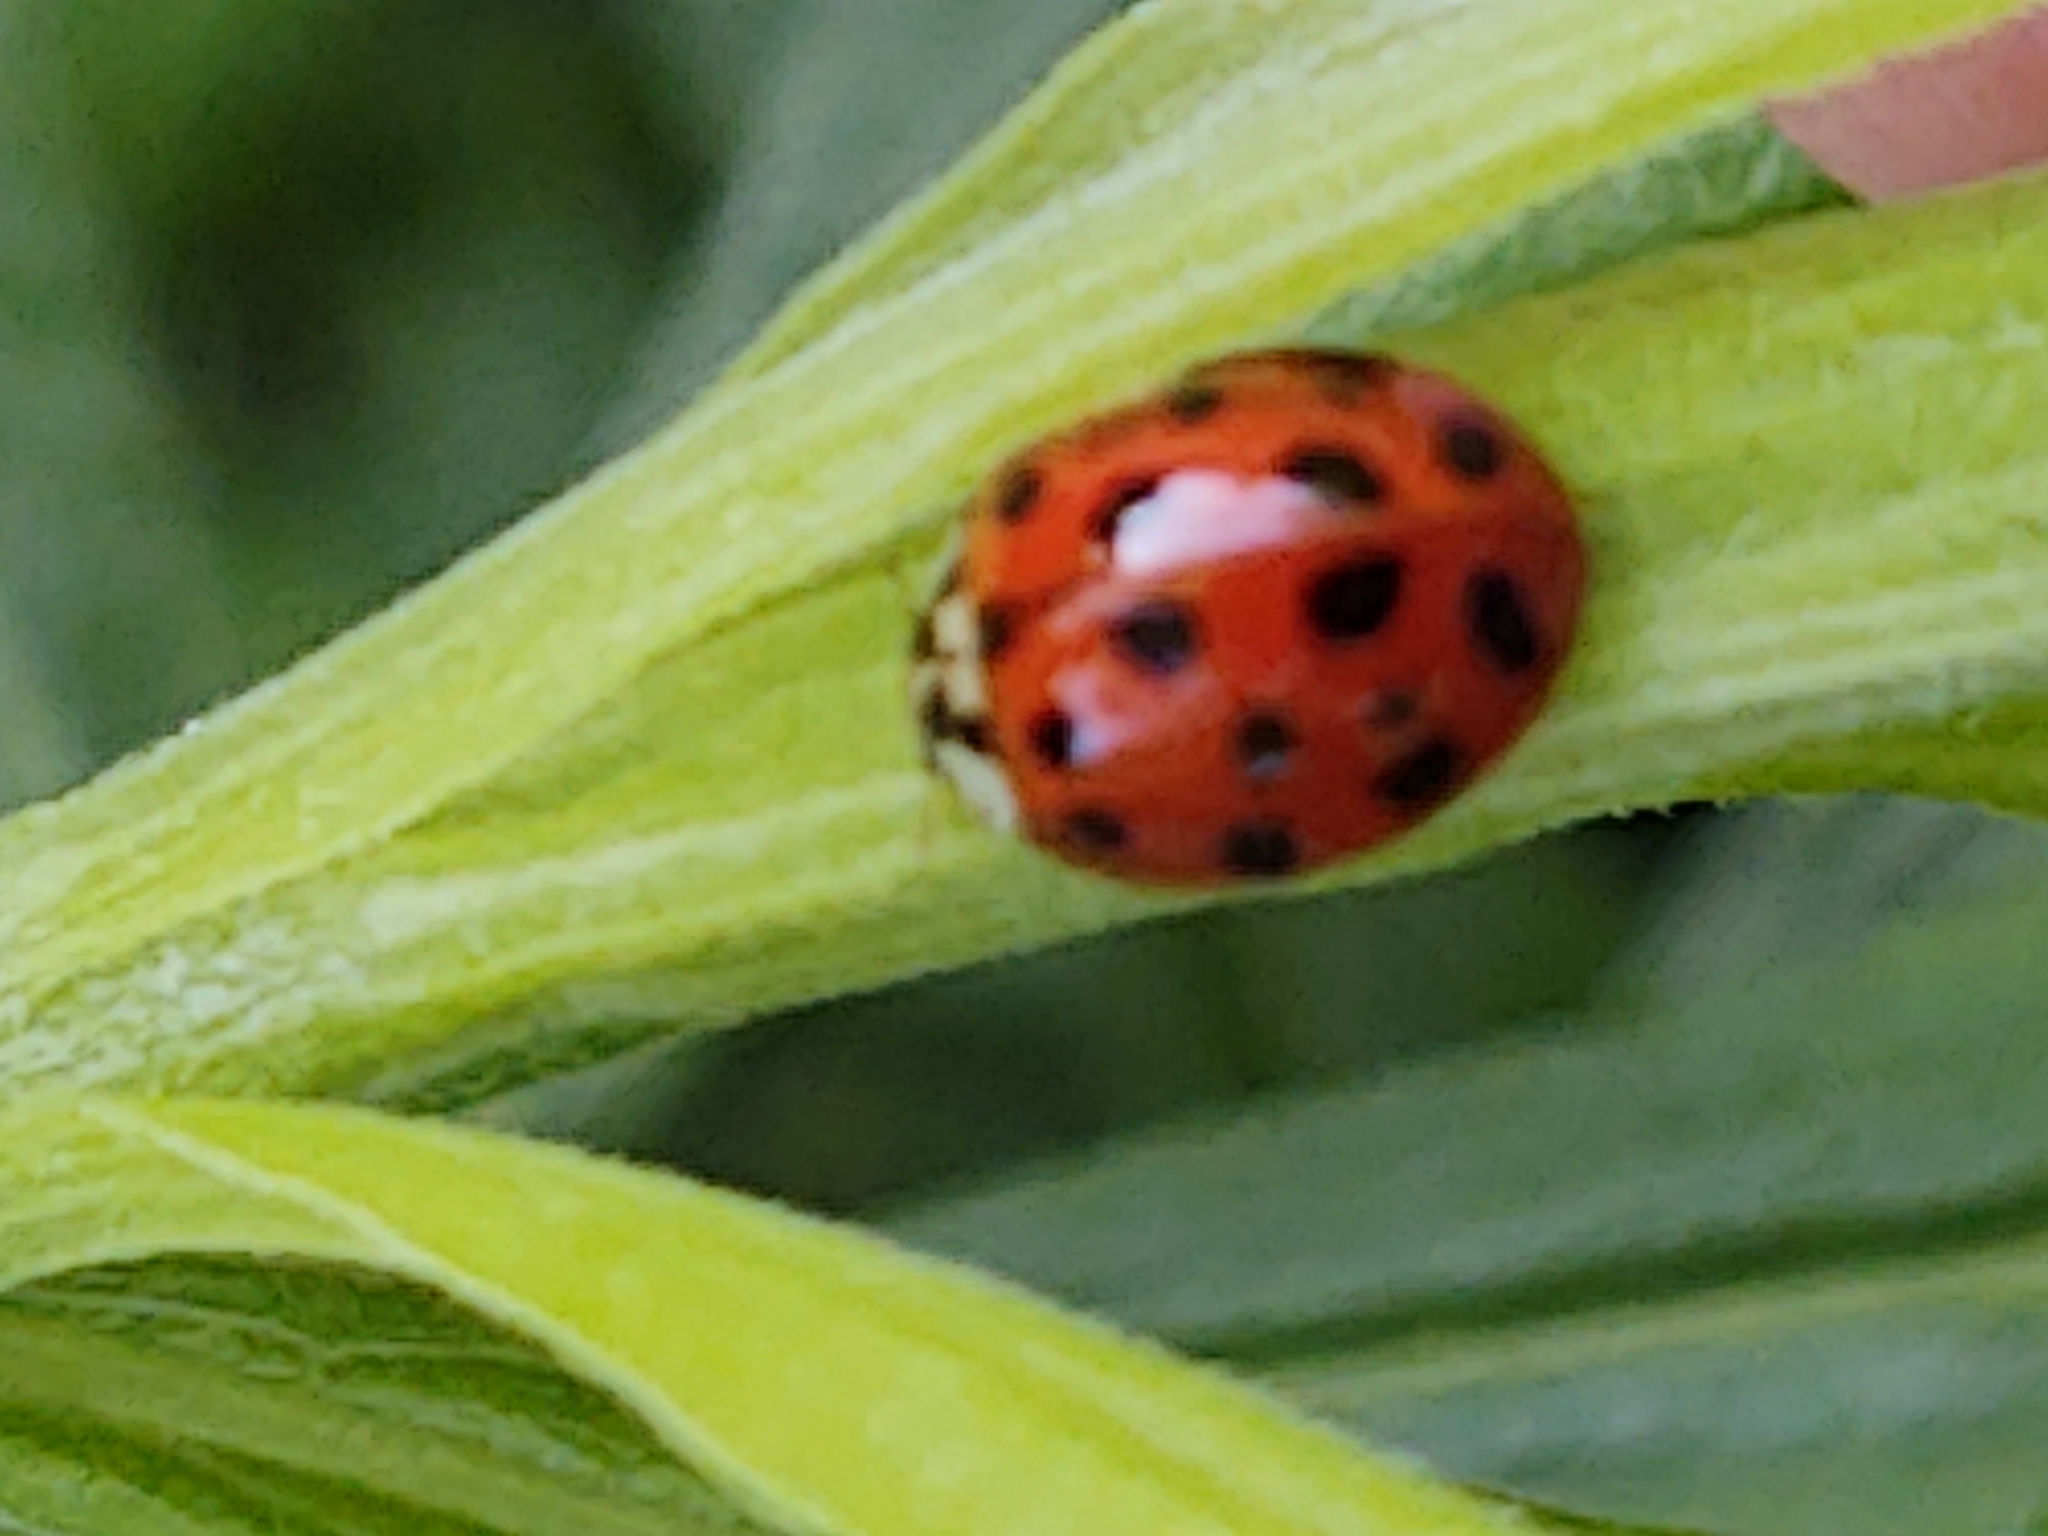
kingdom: Animalia
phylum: Arthropoda
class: Insecta
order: Coleoptera
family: Coccinellidae
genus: Harmonia
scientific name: Harmonia axyridis
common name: Harlequin ladybird
